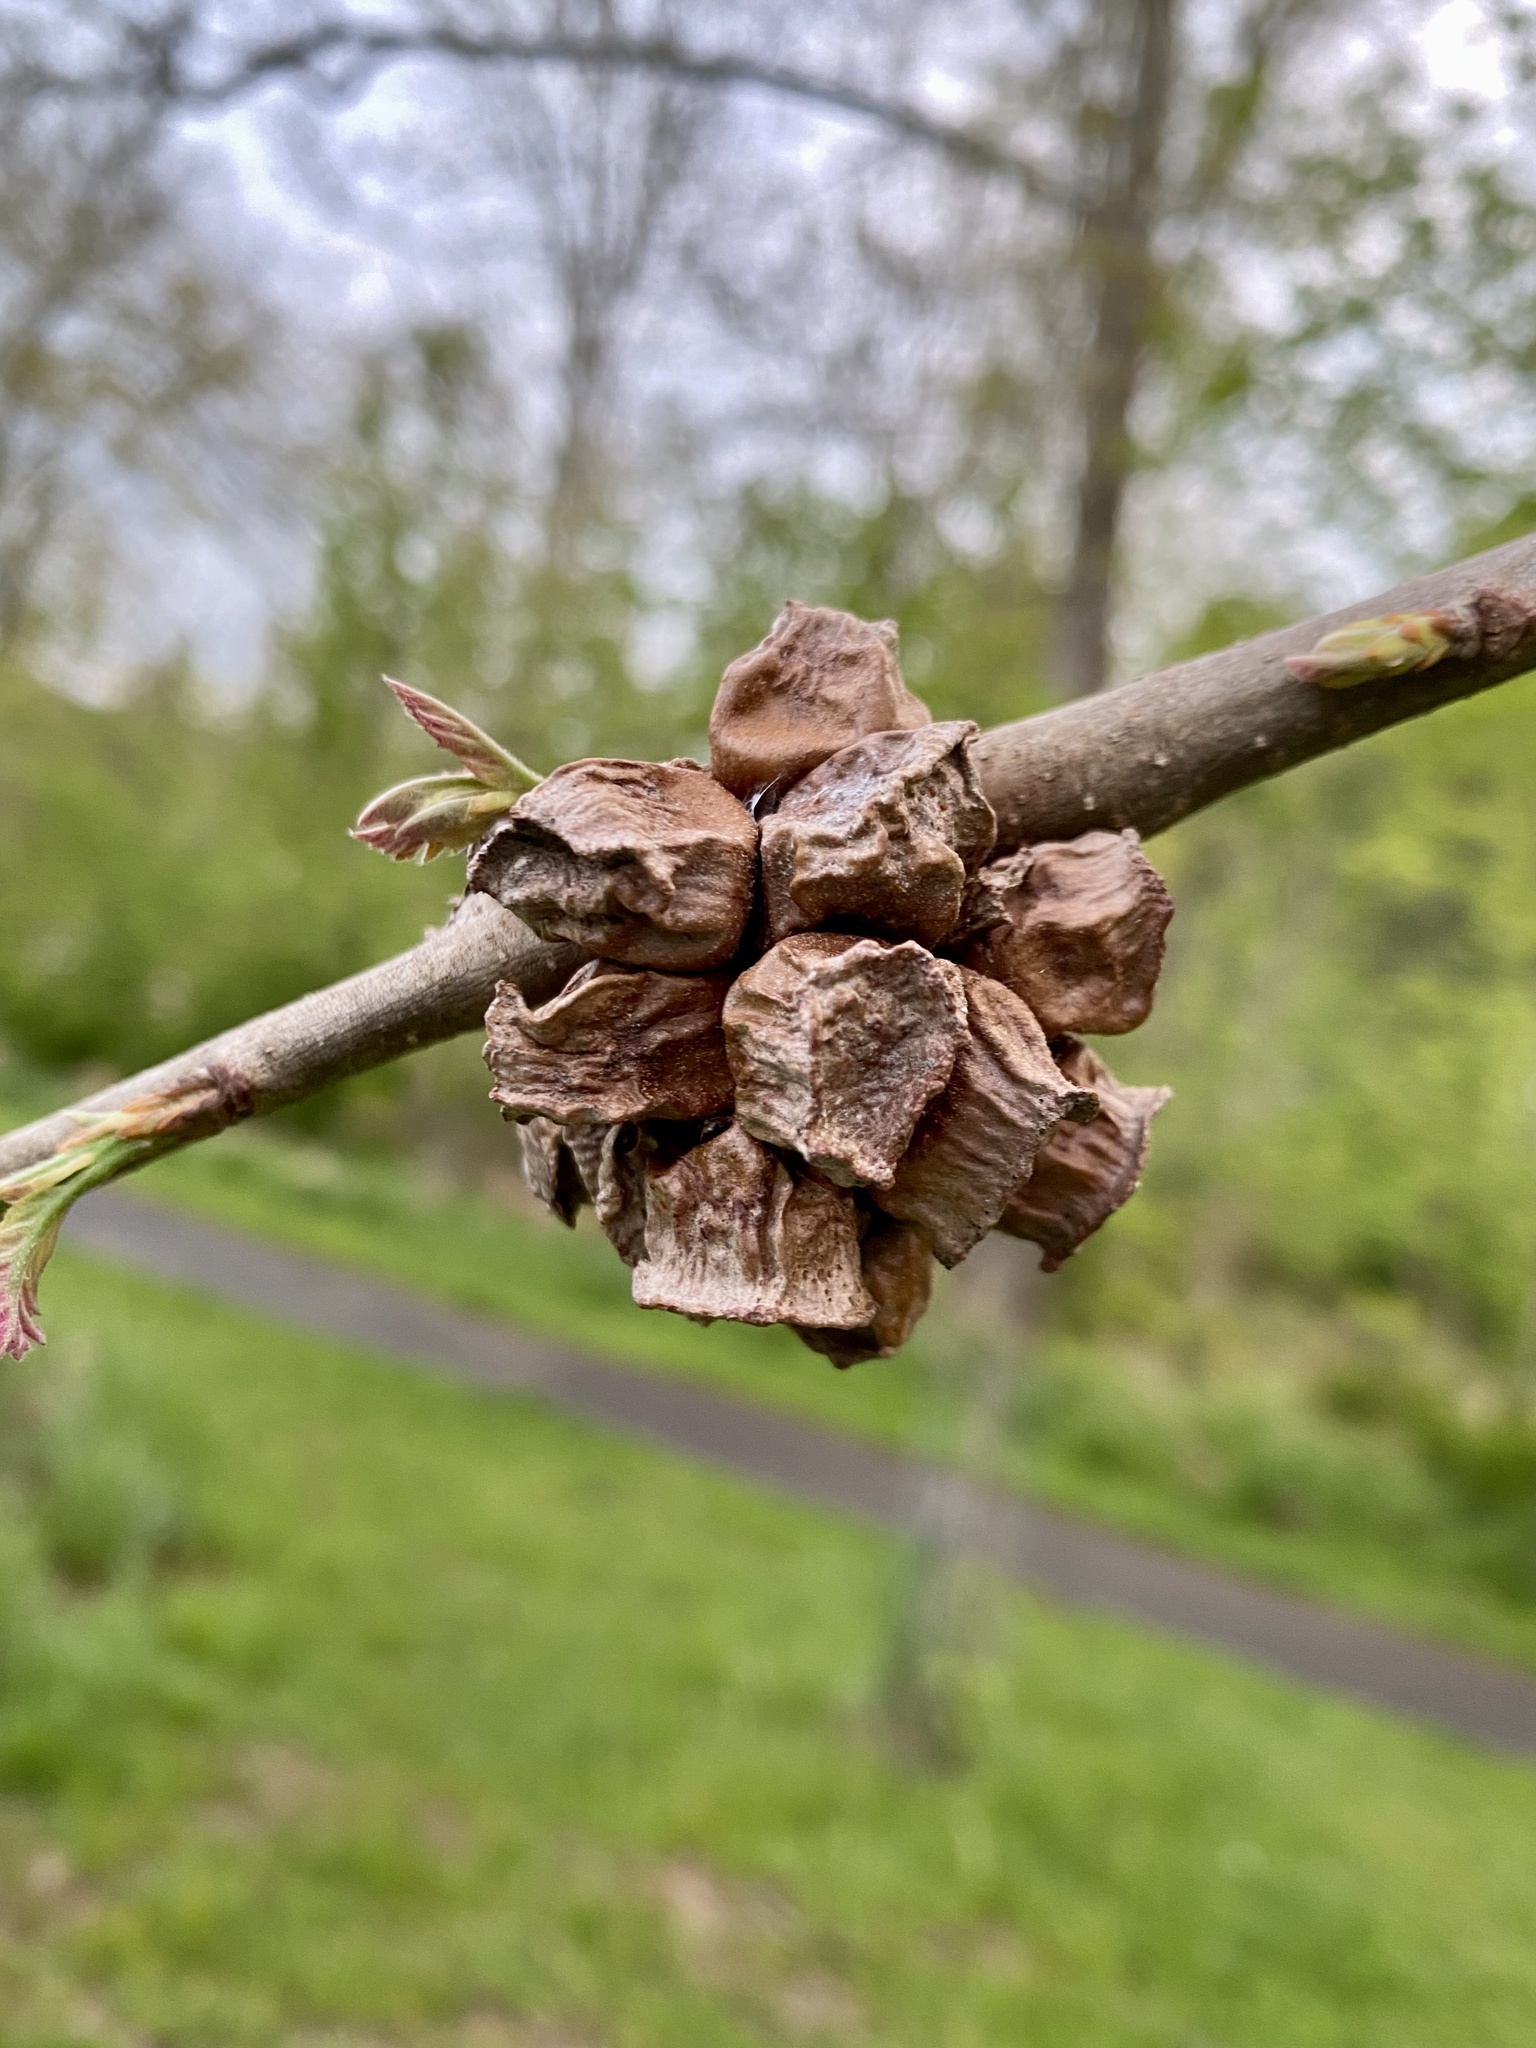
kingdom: Animalia
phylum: Arthropoda
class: Insecta
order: Hymenoptera
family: Cynipidae
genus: Andricus
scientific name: Andricus
